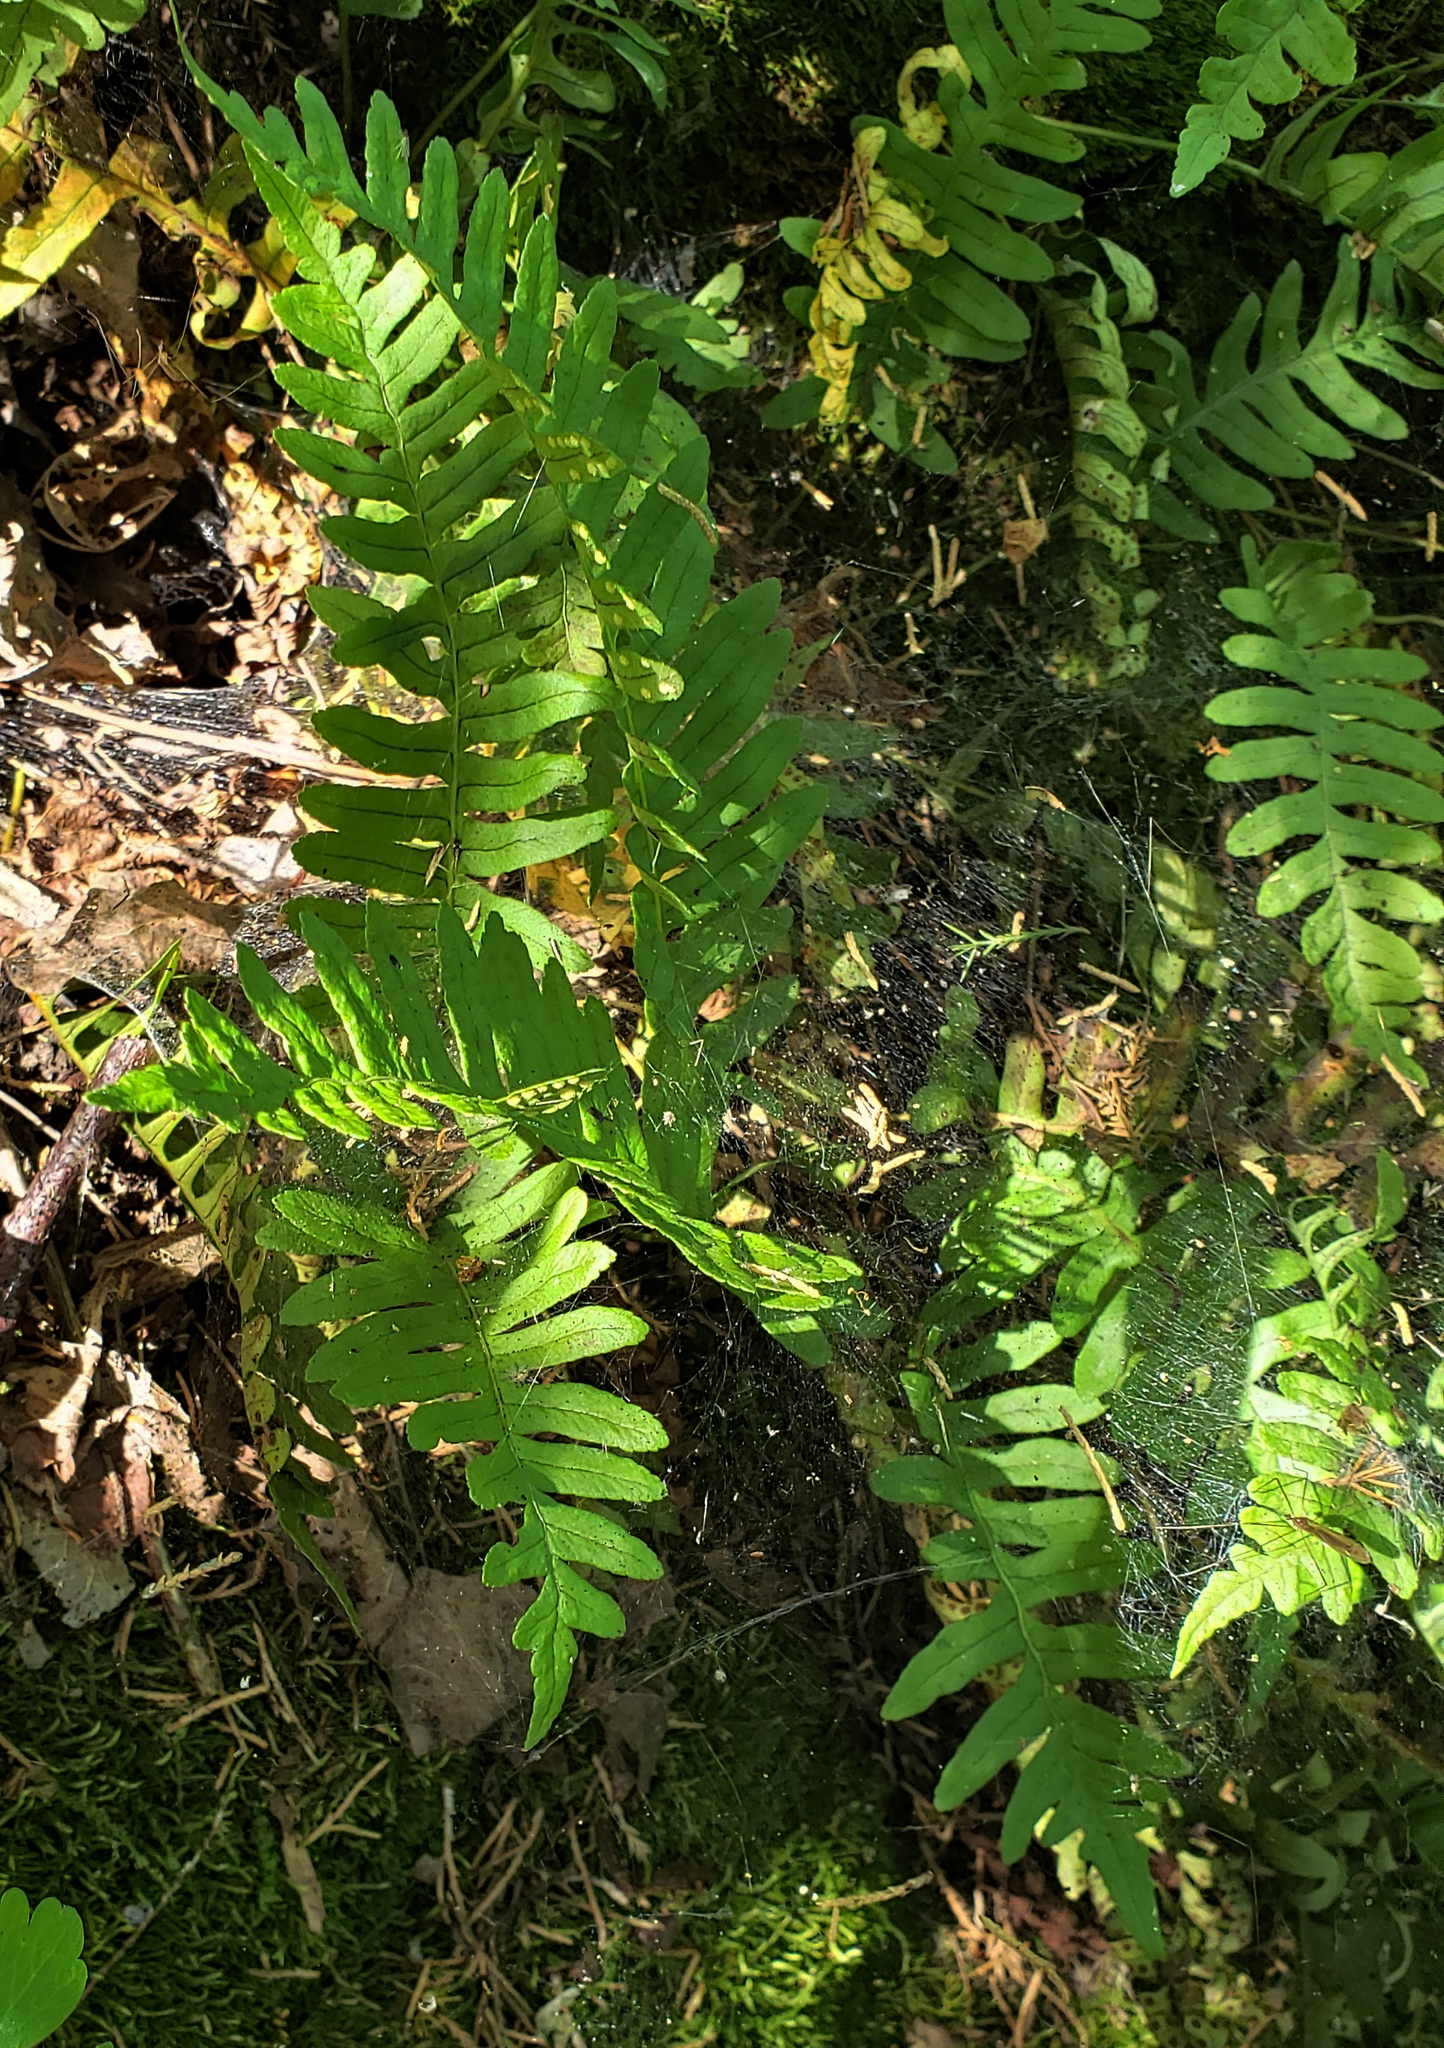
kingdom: Plantae
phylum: Tracheophyta
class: Polypodiopsida
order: Polypodiales
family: Polypodiaceae
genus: Polypodium
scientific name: Polypodium virginianum
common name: American wall fern
